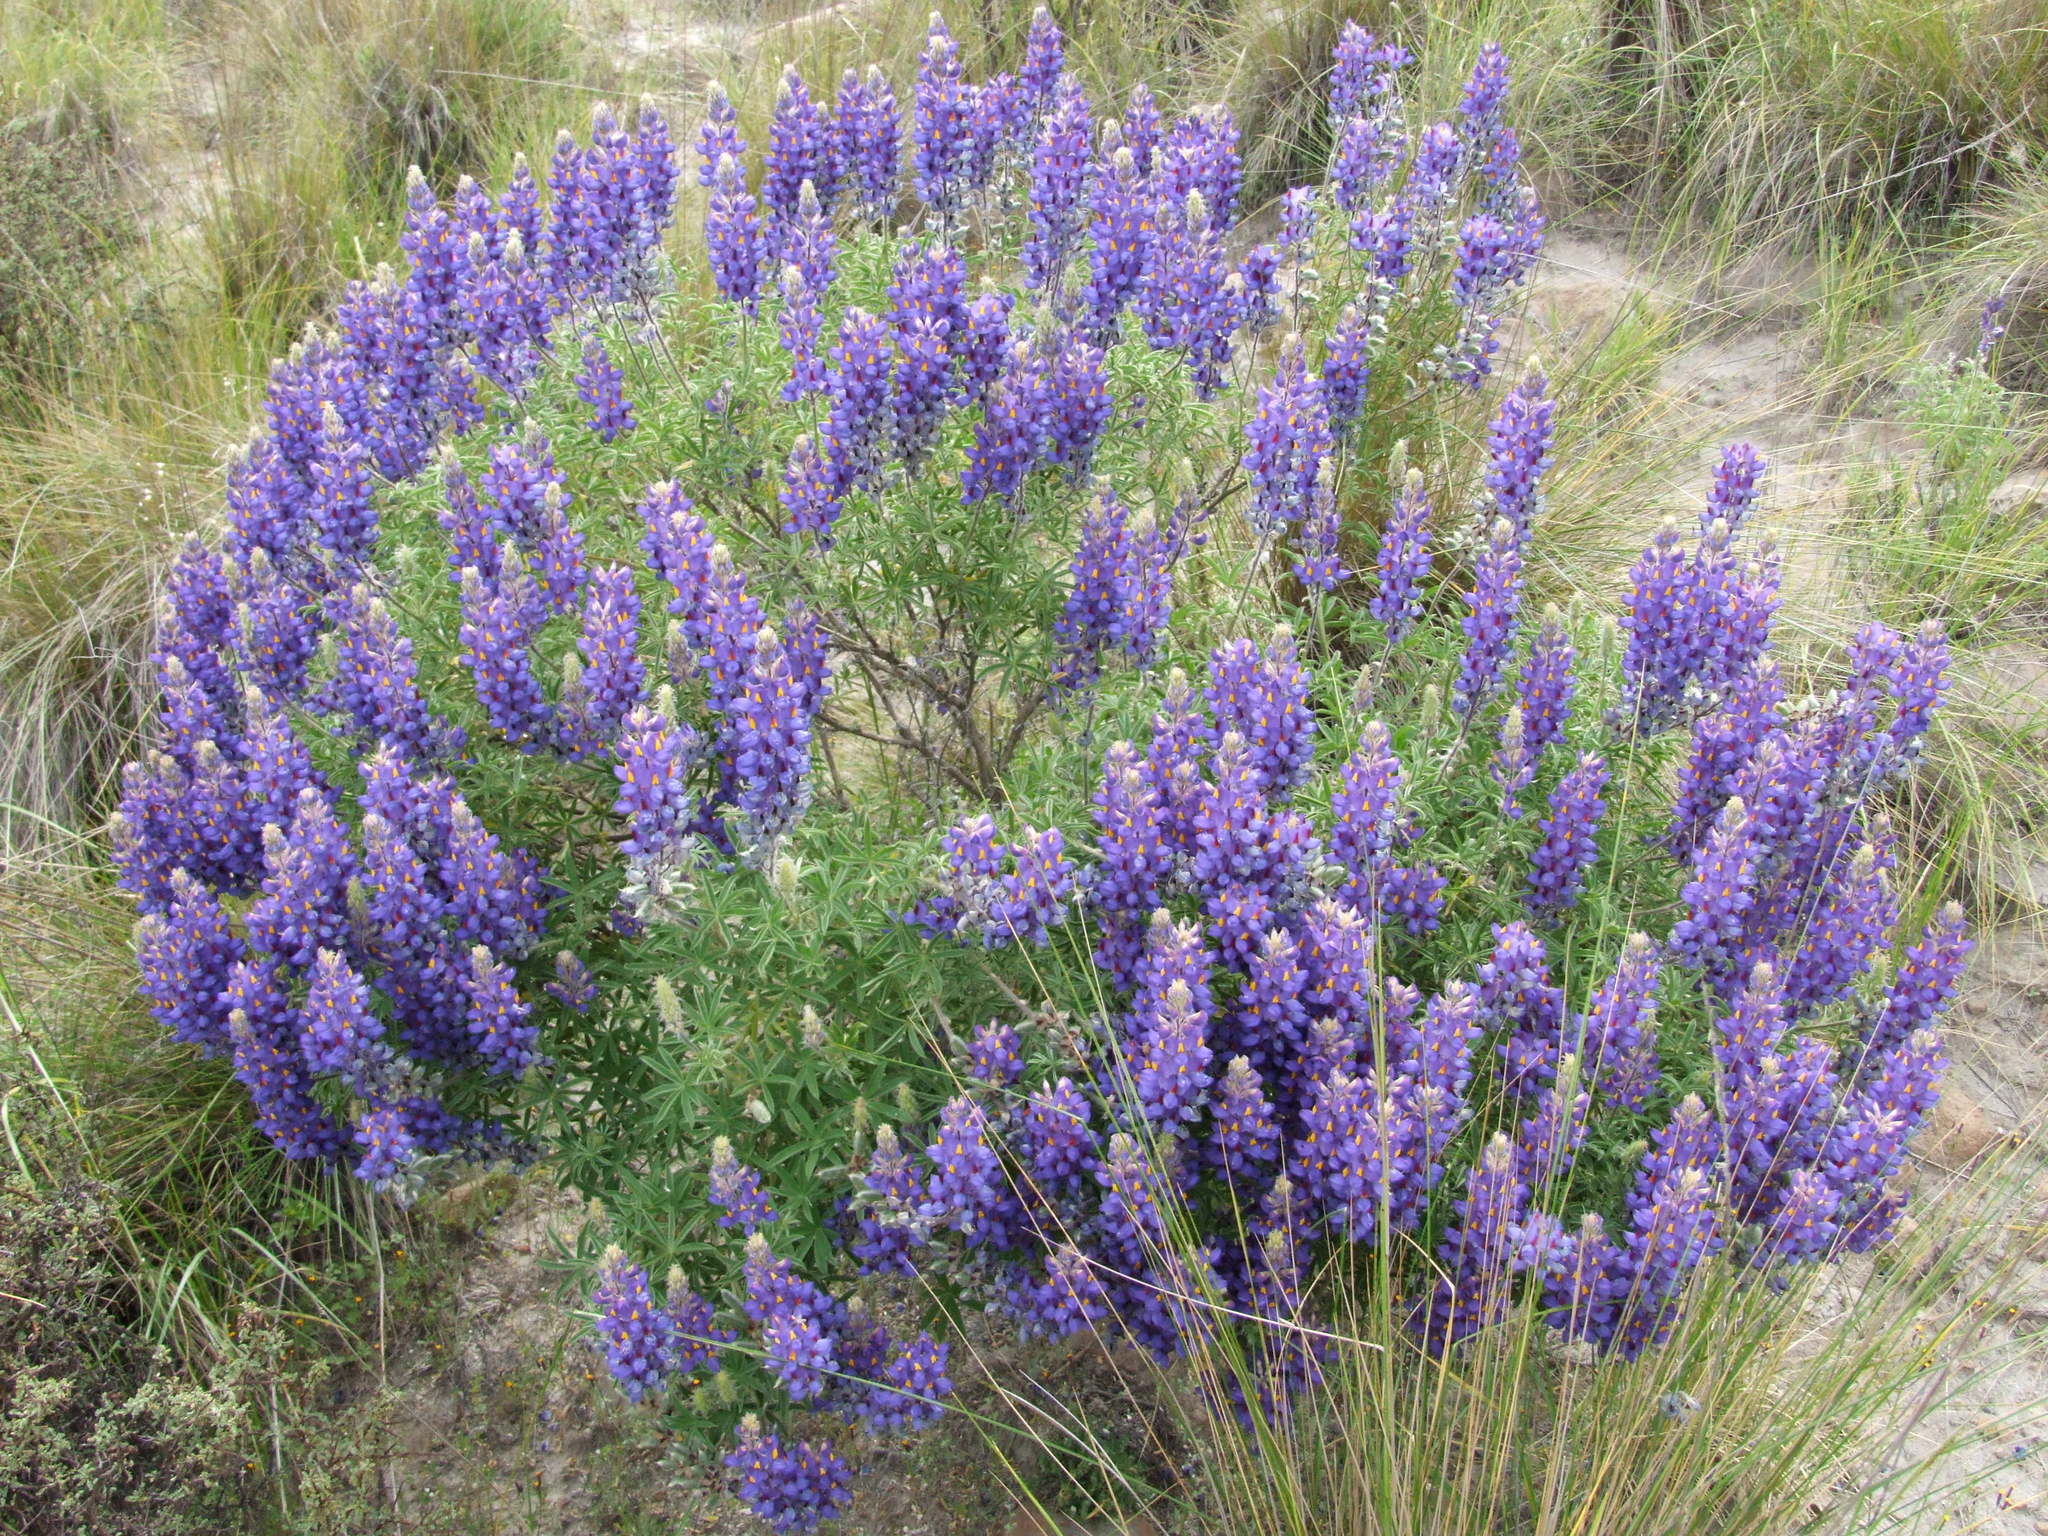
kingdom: Plantae
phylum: Tracheophyta
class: Magnoliopsida
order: Fabales
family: Fabaceae
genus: Lupinus
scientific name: Lupinus saxatilis
